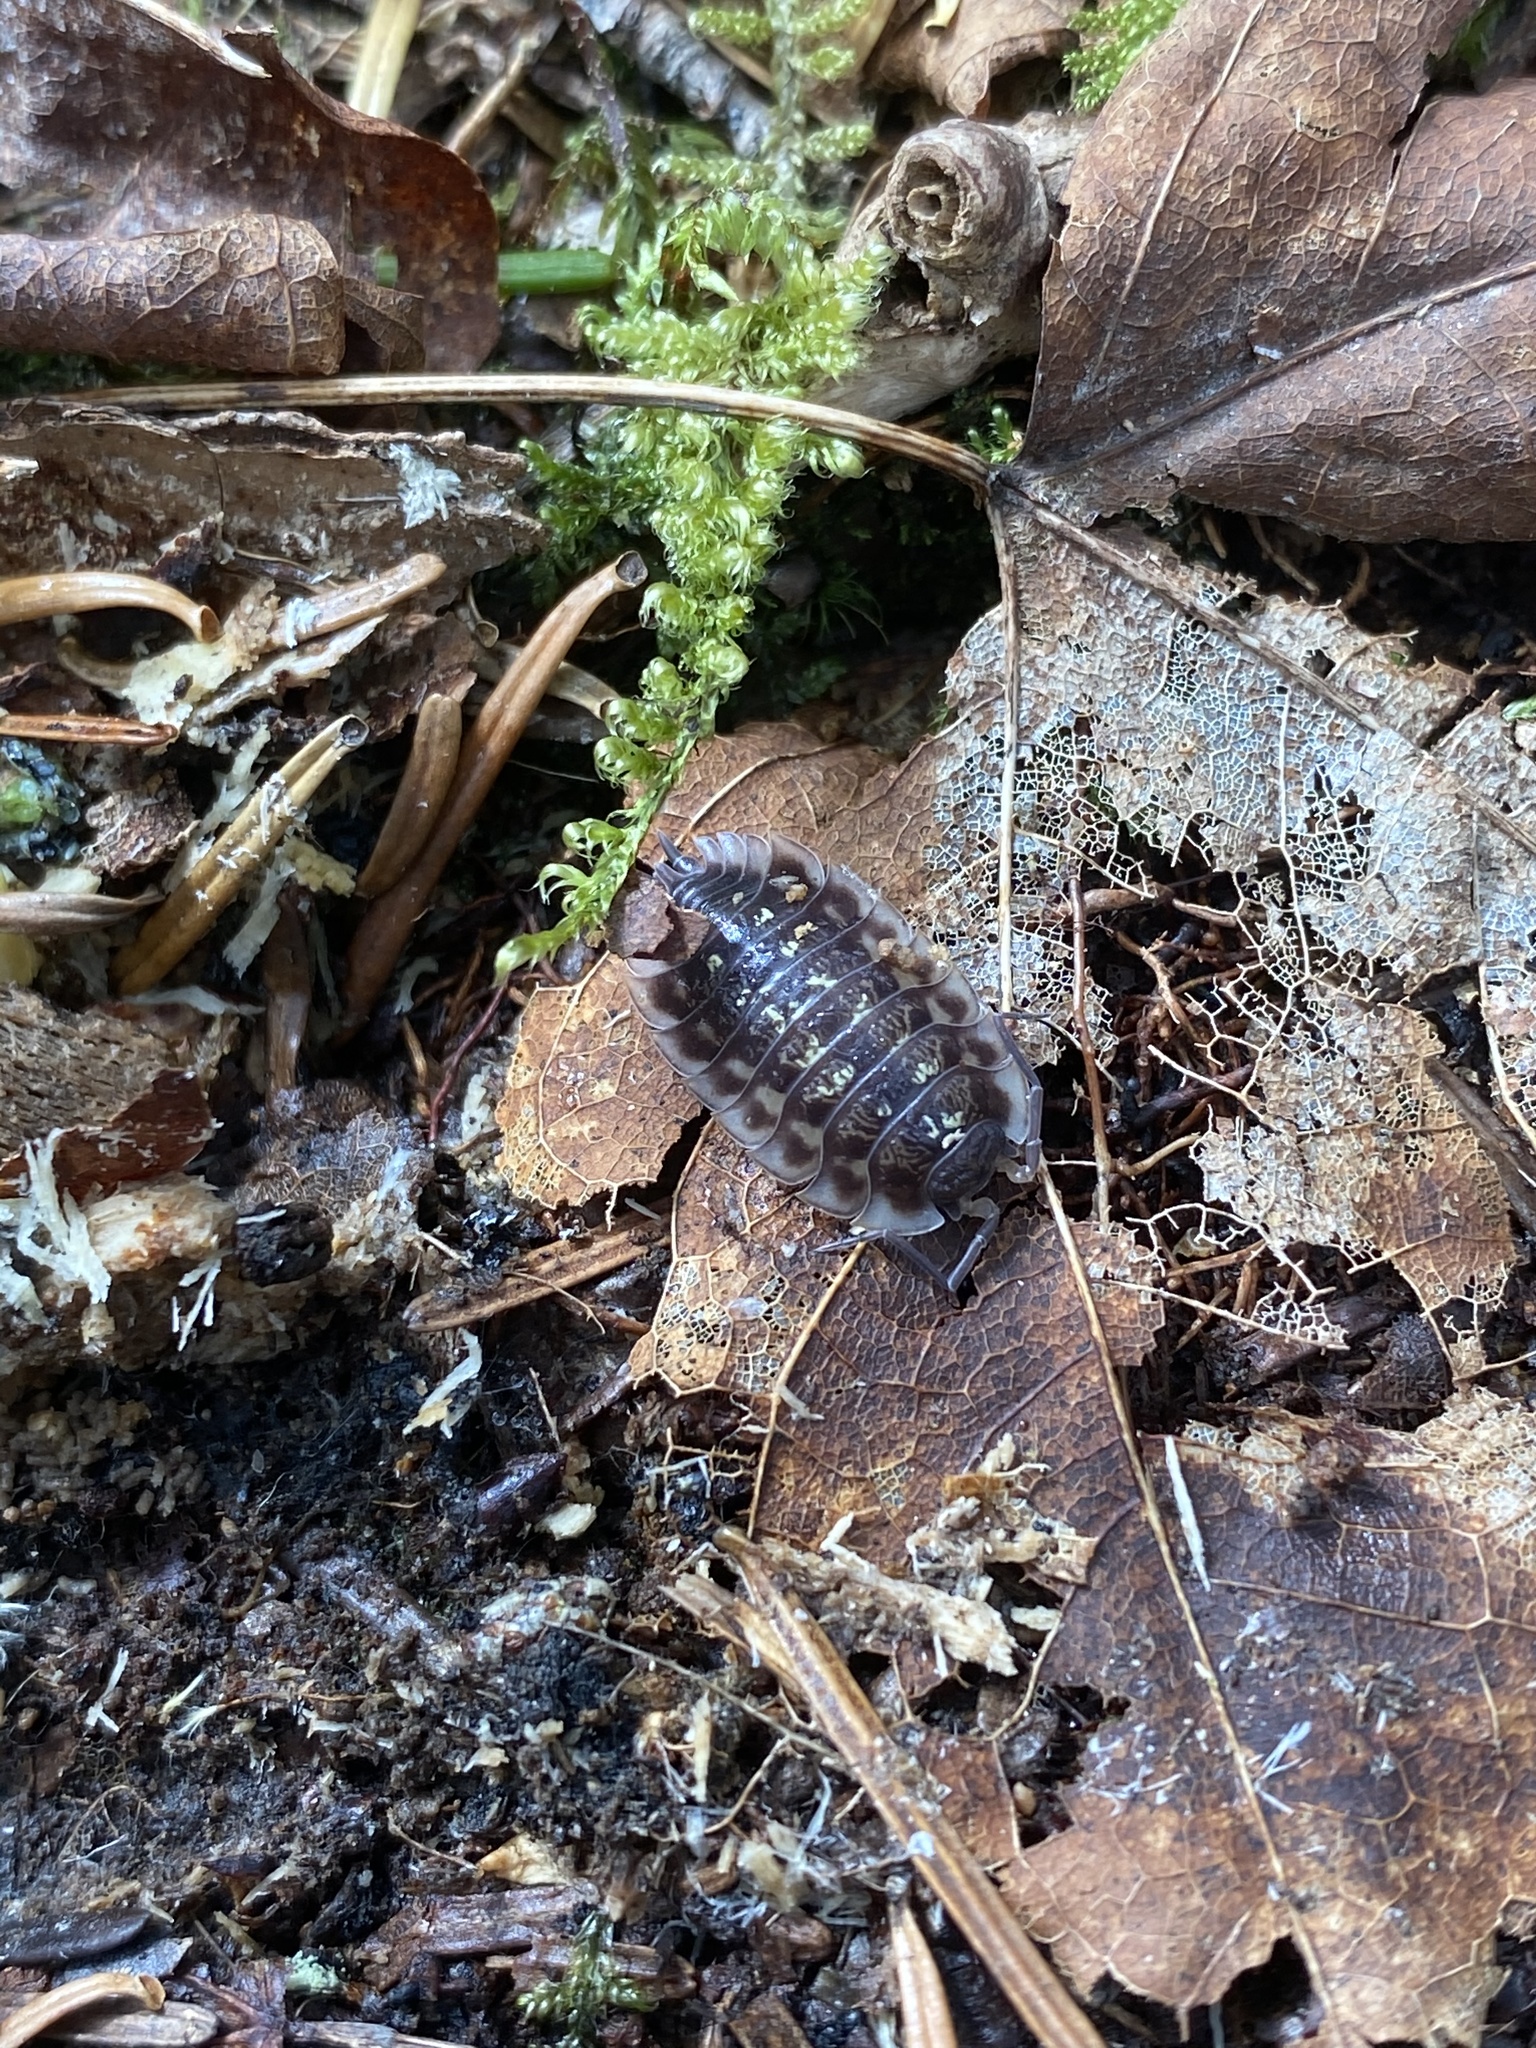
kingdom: Animalia
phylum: Arthropoda
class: Malacostraca
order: Isopoda
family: Oniscidae
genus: Oniscus
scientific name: Oniscus asellus
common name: Common shiny woodlouse
